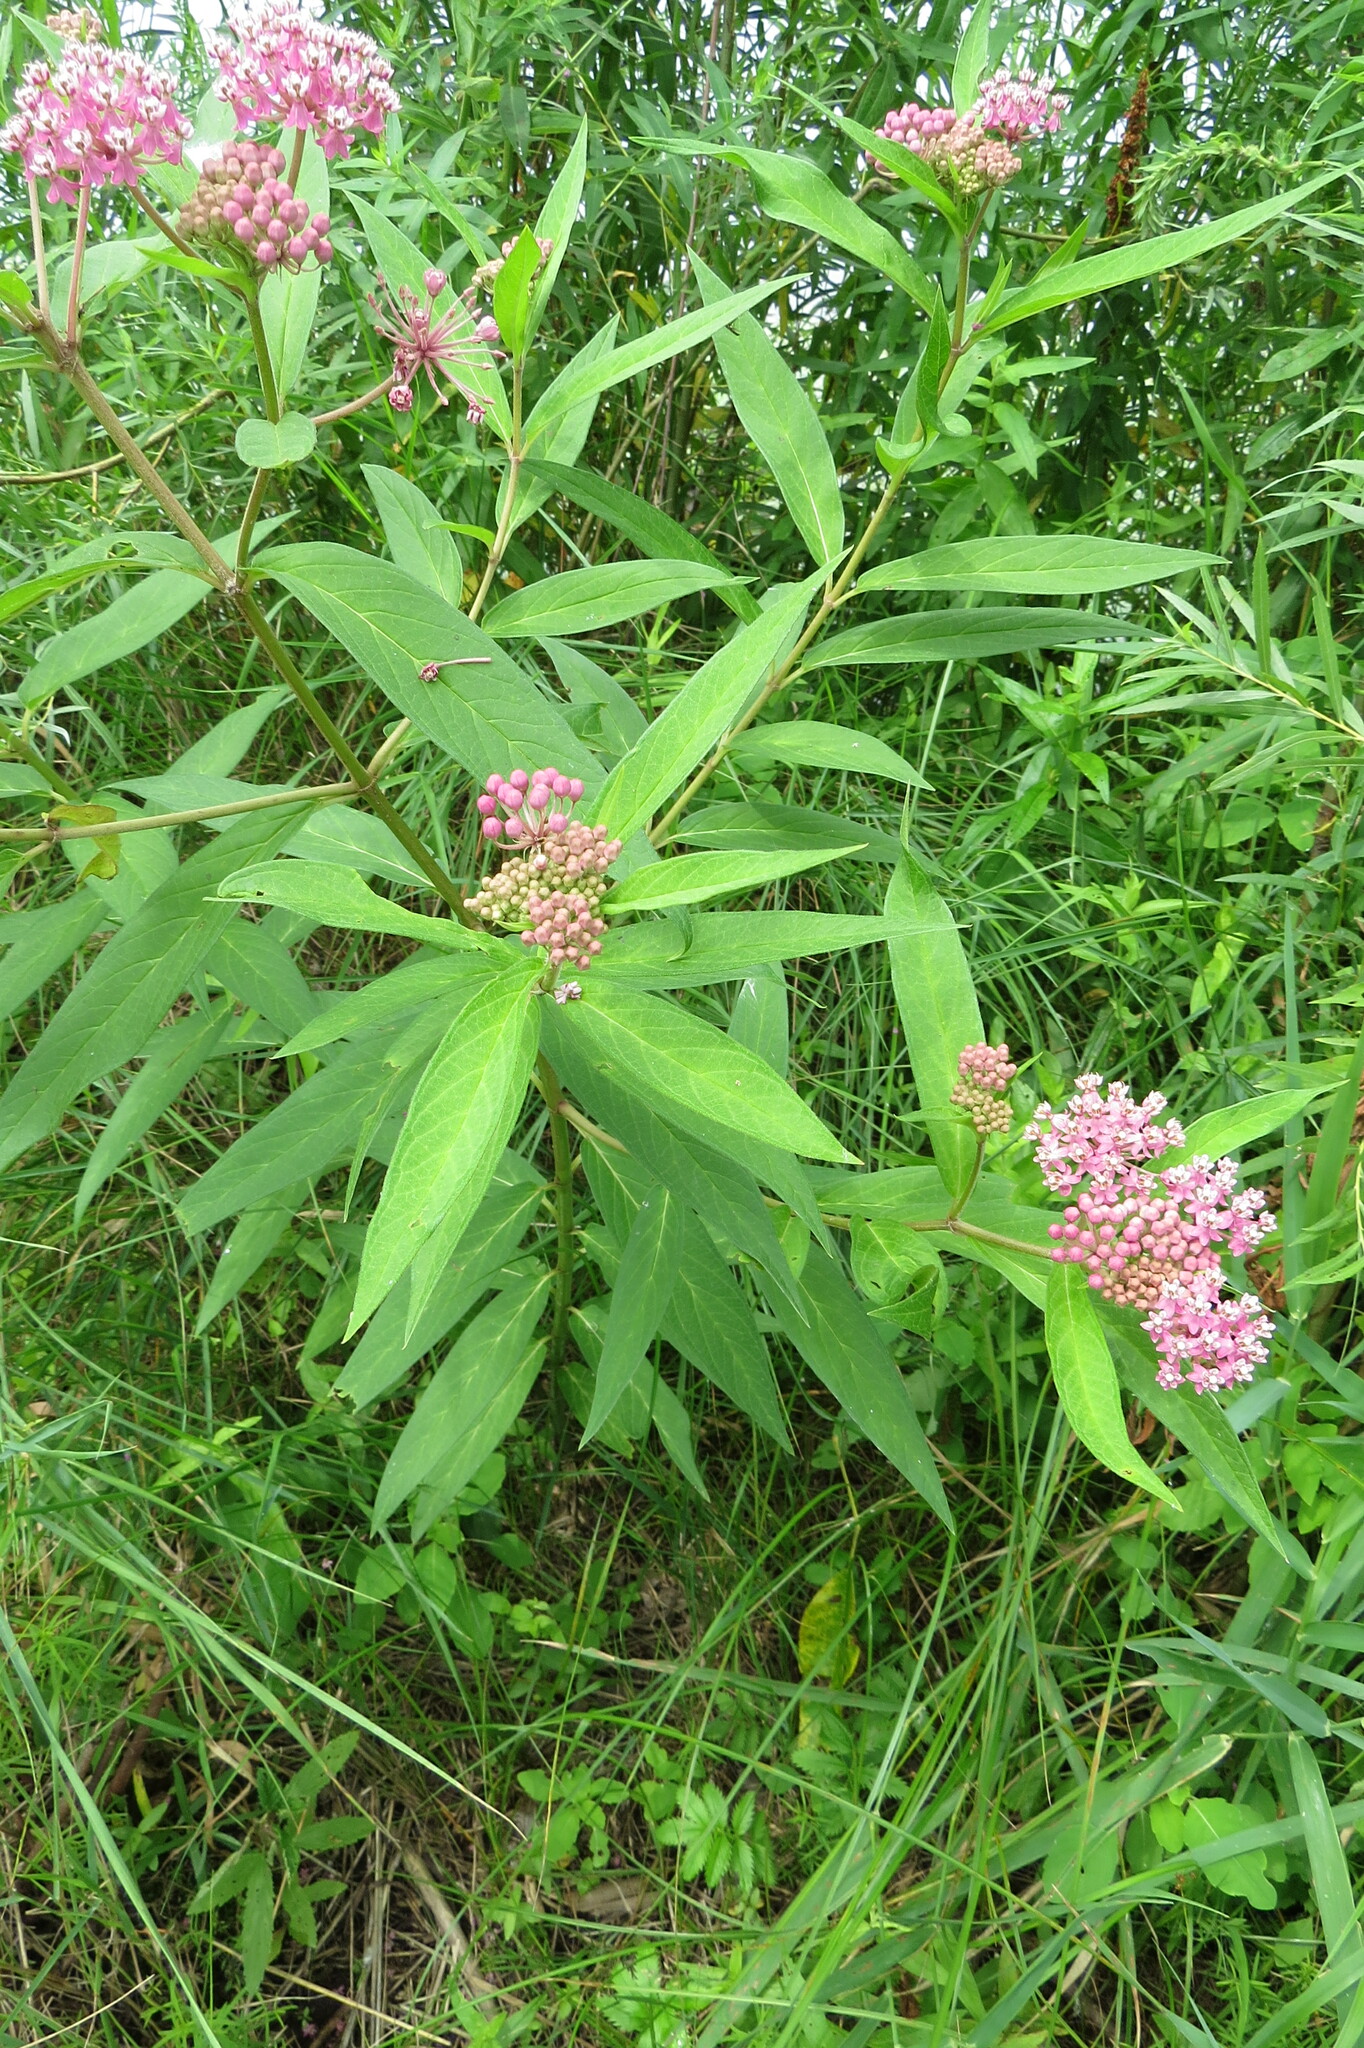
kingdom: Plantae
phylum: Tracheophyta
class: Magnoliopsida
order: Gentianales
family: Apocynaceae
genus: Asclepias
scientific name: Asclepias incarnata
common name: Swamp milkweed
